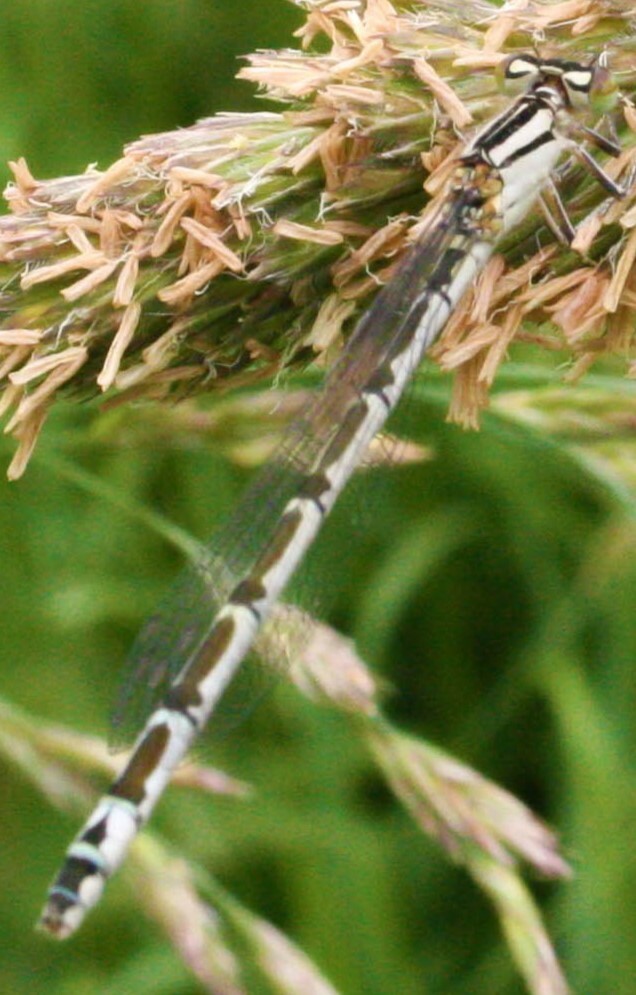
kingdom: Animalia
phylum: Arthropoda
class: Insecta
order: Odonata
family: Coenagrionidae
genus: Enallagma
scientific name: Enallagma cyathigerum
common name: Common blue damselfly
